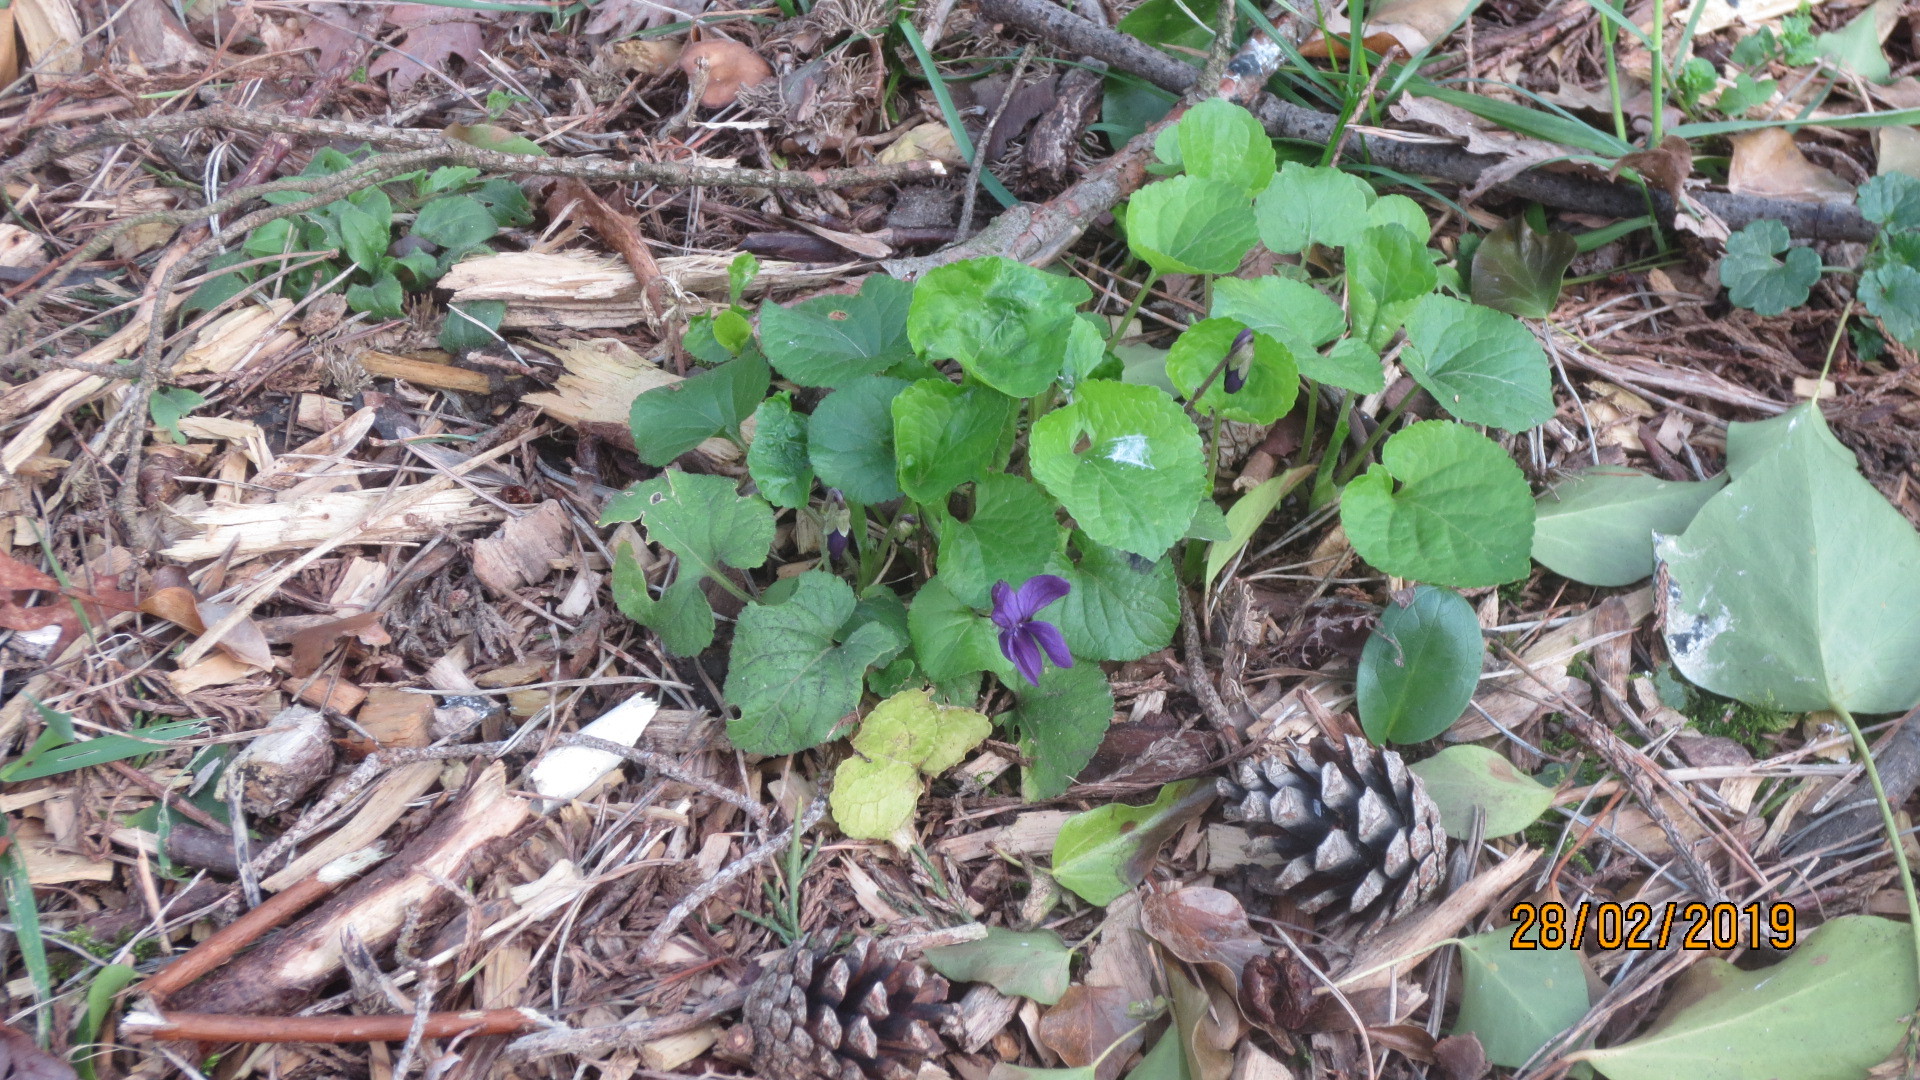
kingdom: Plantae
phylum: Tracheophyta
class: Magnoliopsida
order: Malpighiales
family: Violaceae
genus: Viola
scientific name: Viola odorata
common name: Sweet violet
